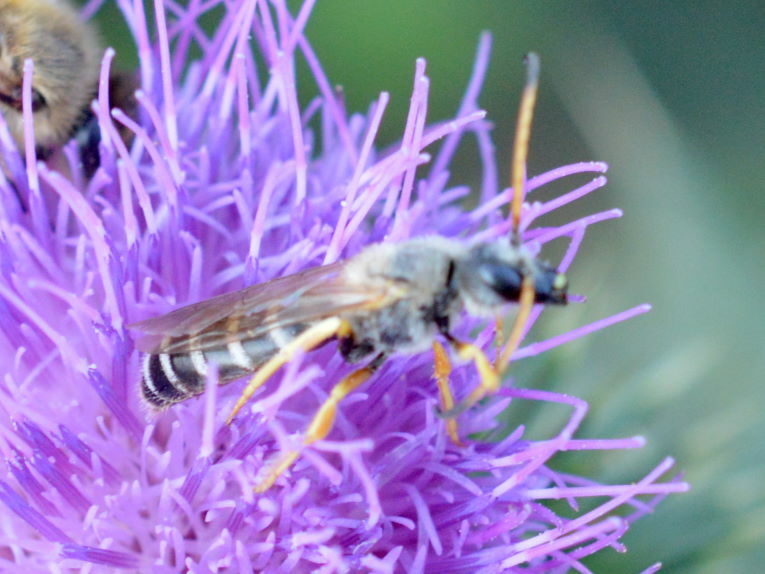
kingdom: Animalia
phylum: Arthropoda
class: Insecta
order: Hymenoptera
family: Halictidae
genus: Halictus
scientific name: Halictus sexcinctus
